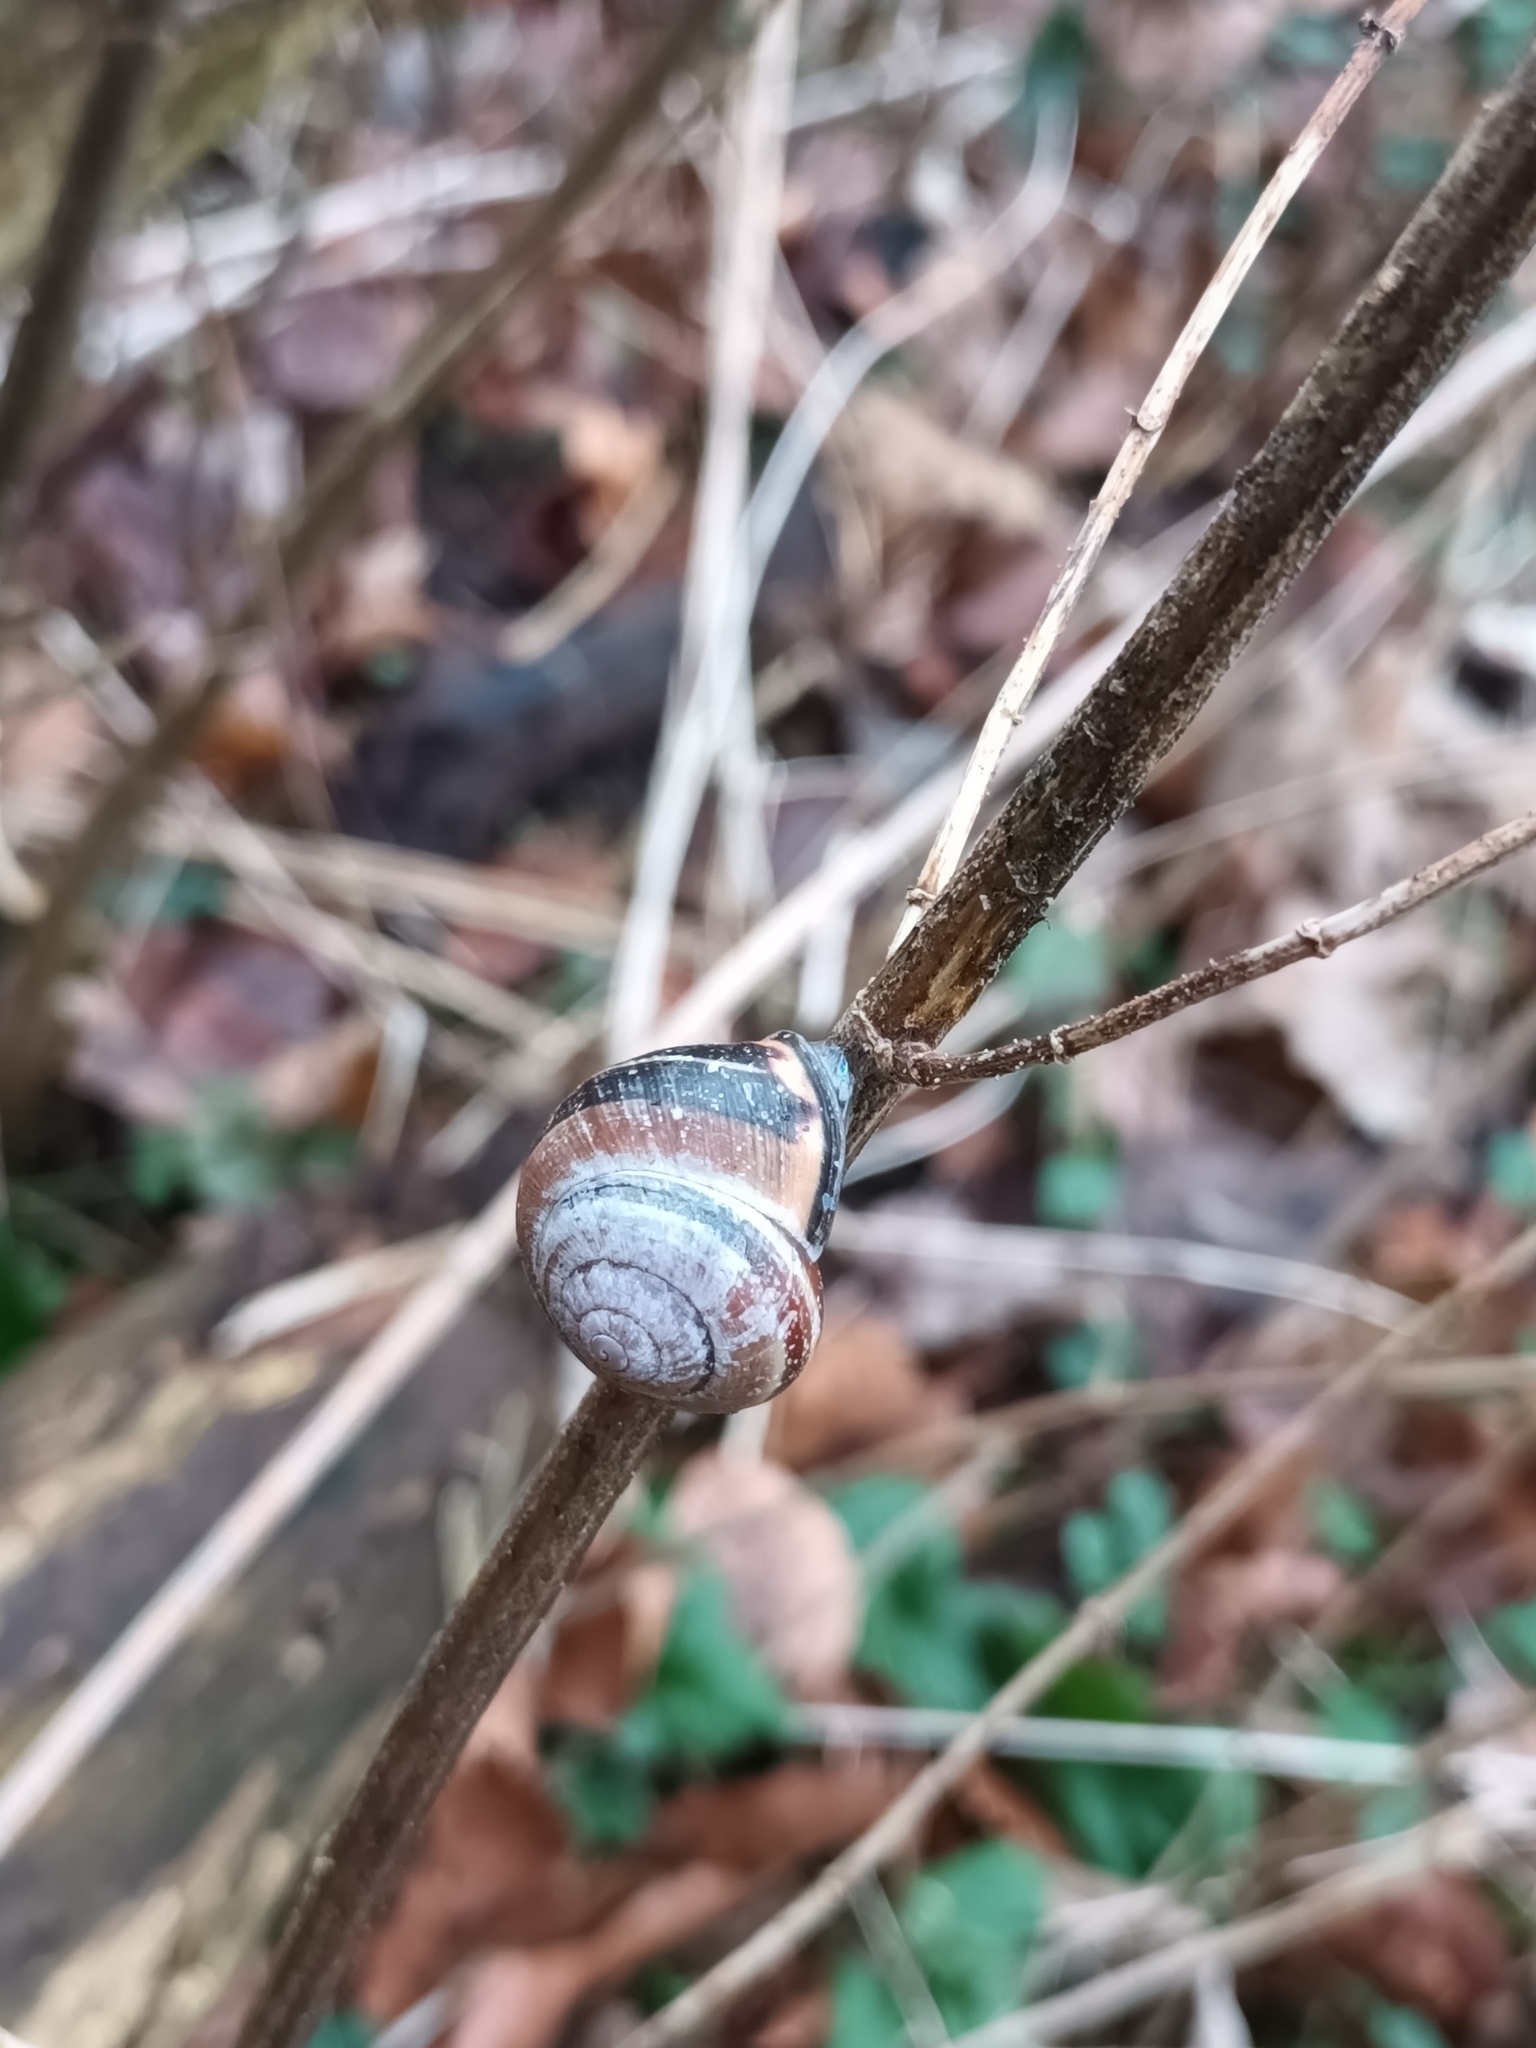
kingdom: Animalia
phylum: Mollusca
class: Gastropoda
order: Stylommatophora
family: Helicidae
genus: Cepaea
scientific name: Cepaea nemoralis
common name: Grovesnail
